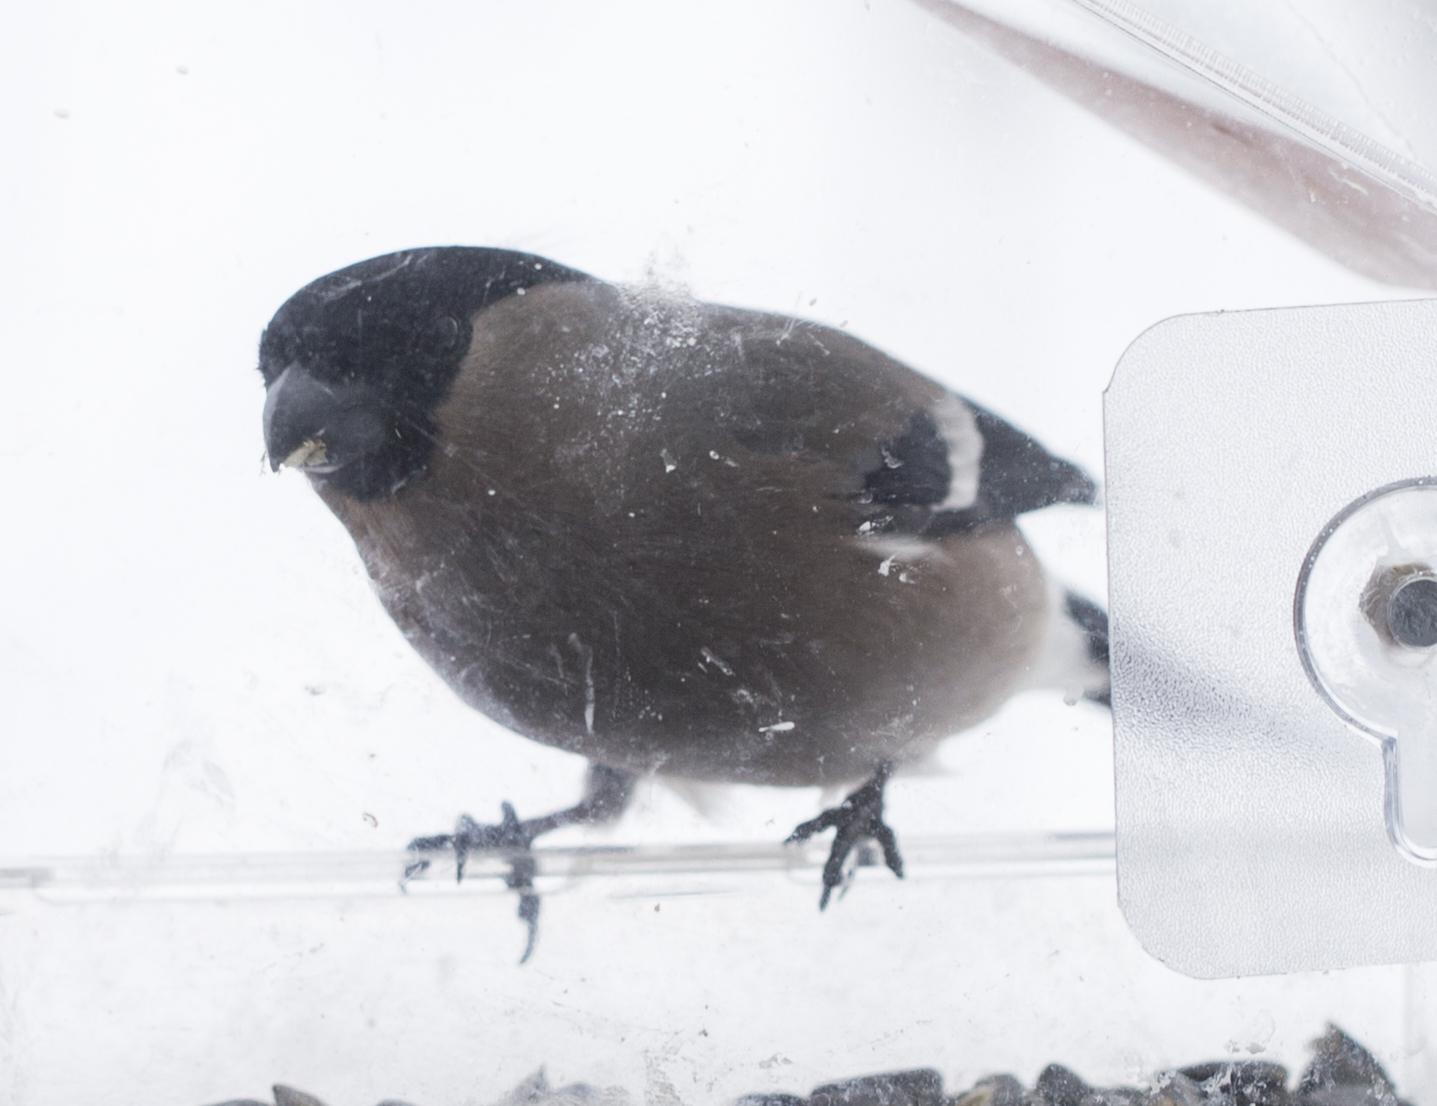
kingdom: Animalia
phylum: Chordata
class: Aves
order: Passeriformes
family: Fringillidae
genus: Pyrrhula
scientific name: Pyrrhula pyrrhula
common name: Eurasian bullfinch
